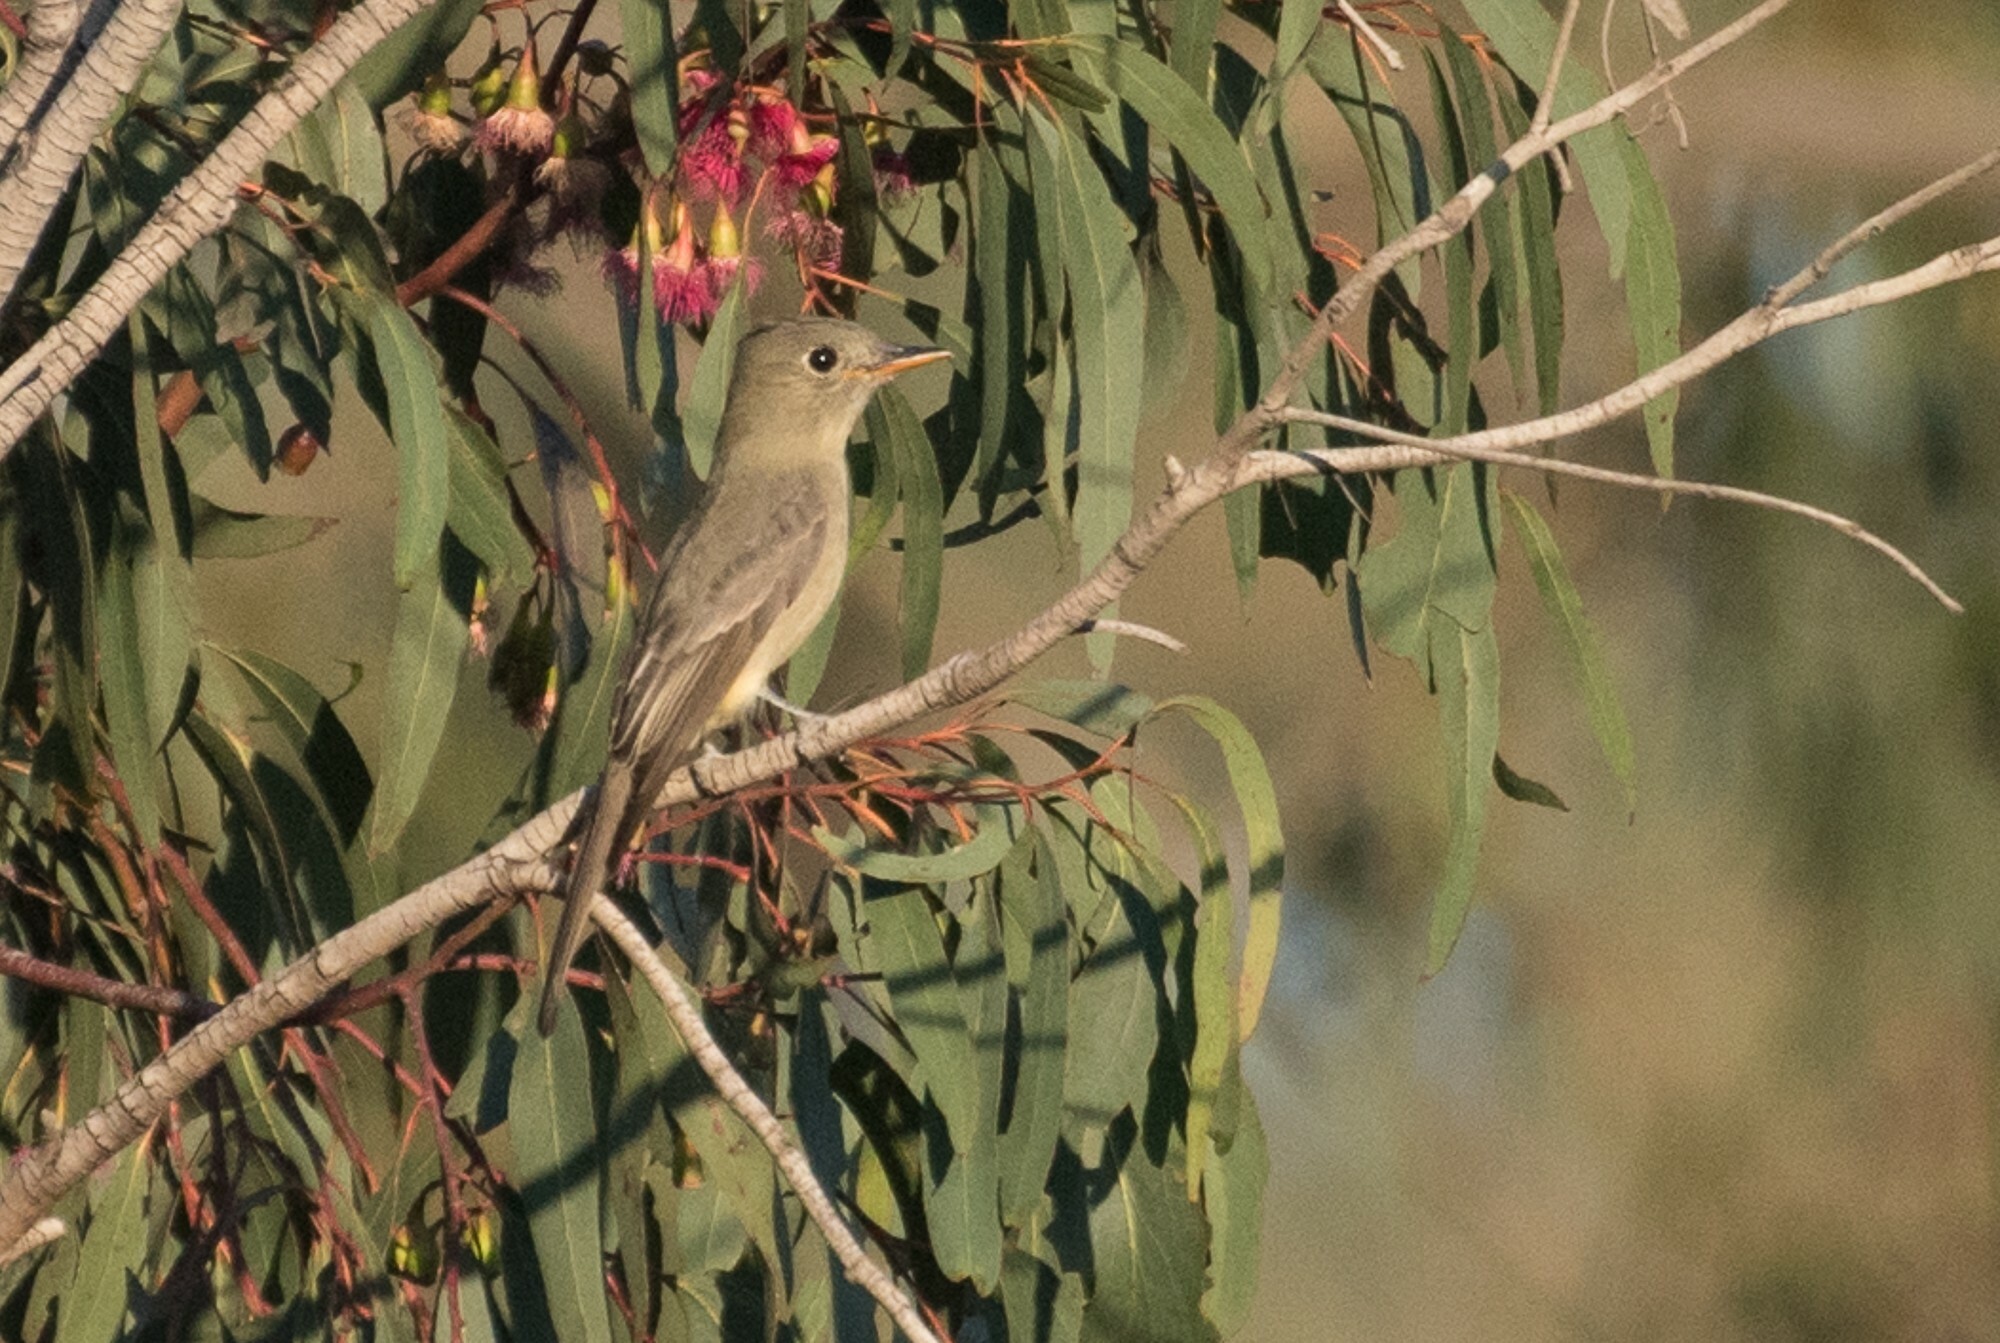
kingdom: Animalia
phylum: Chordata
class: Aves
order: Passeriformes
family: Tyrannidae
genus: Contopus
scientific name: Contopus pertinax
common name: Greater pewee
